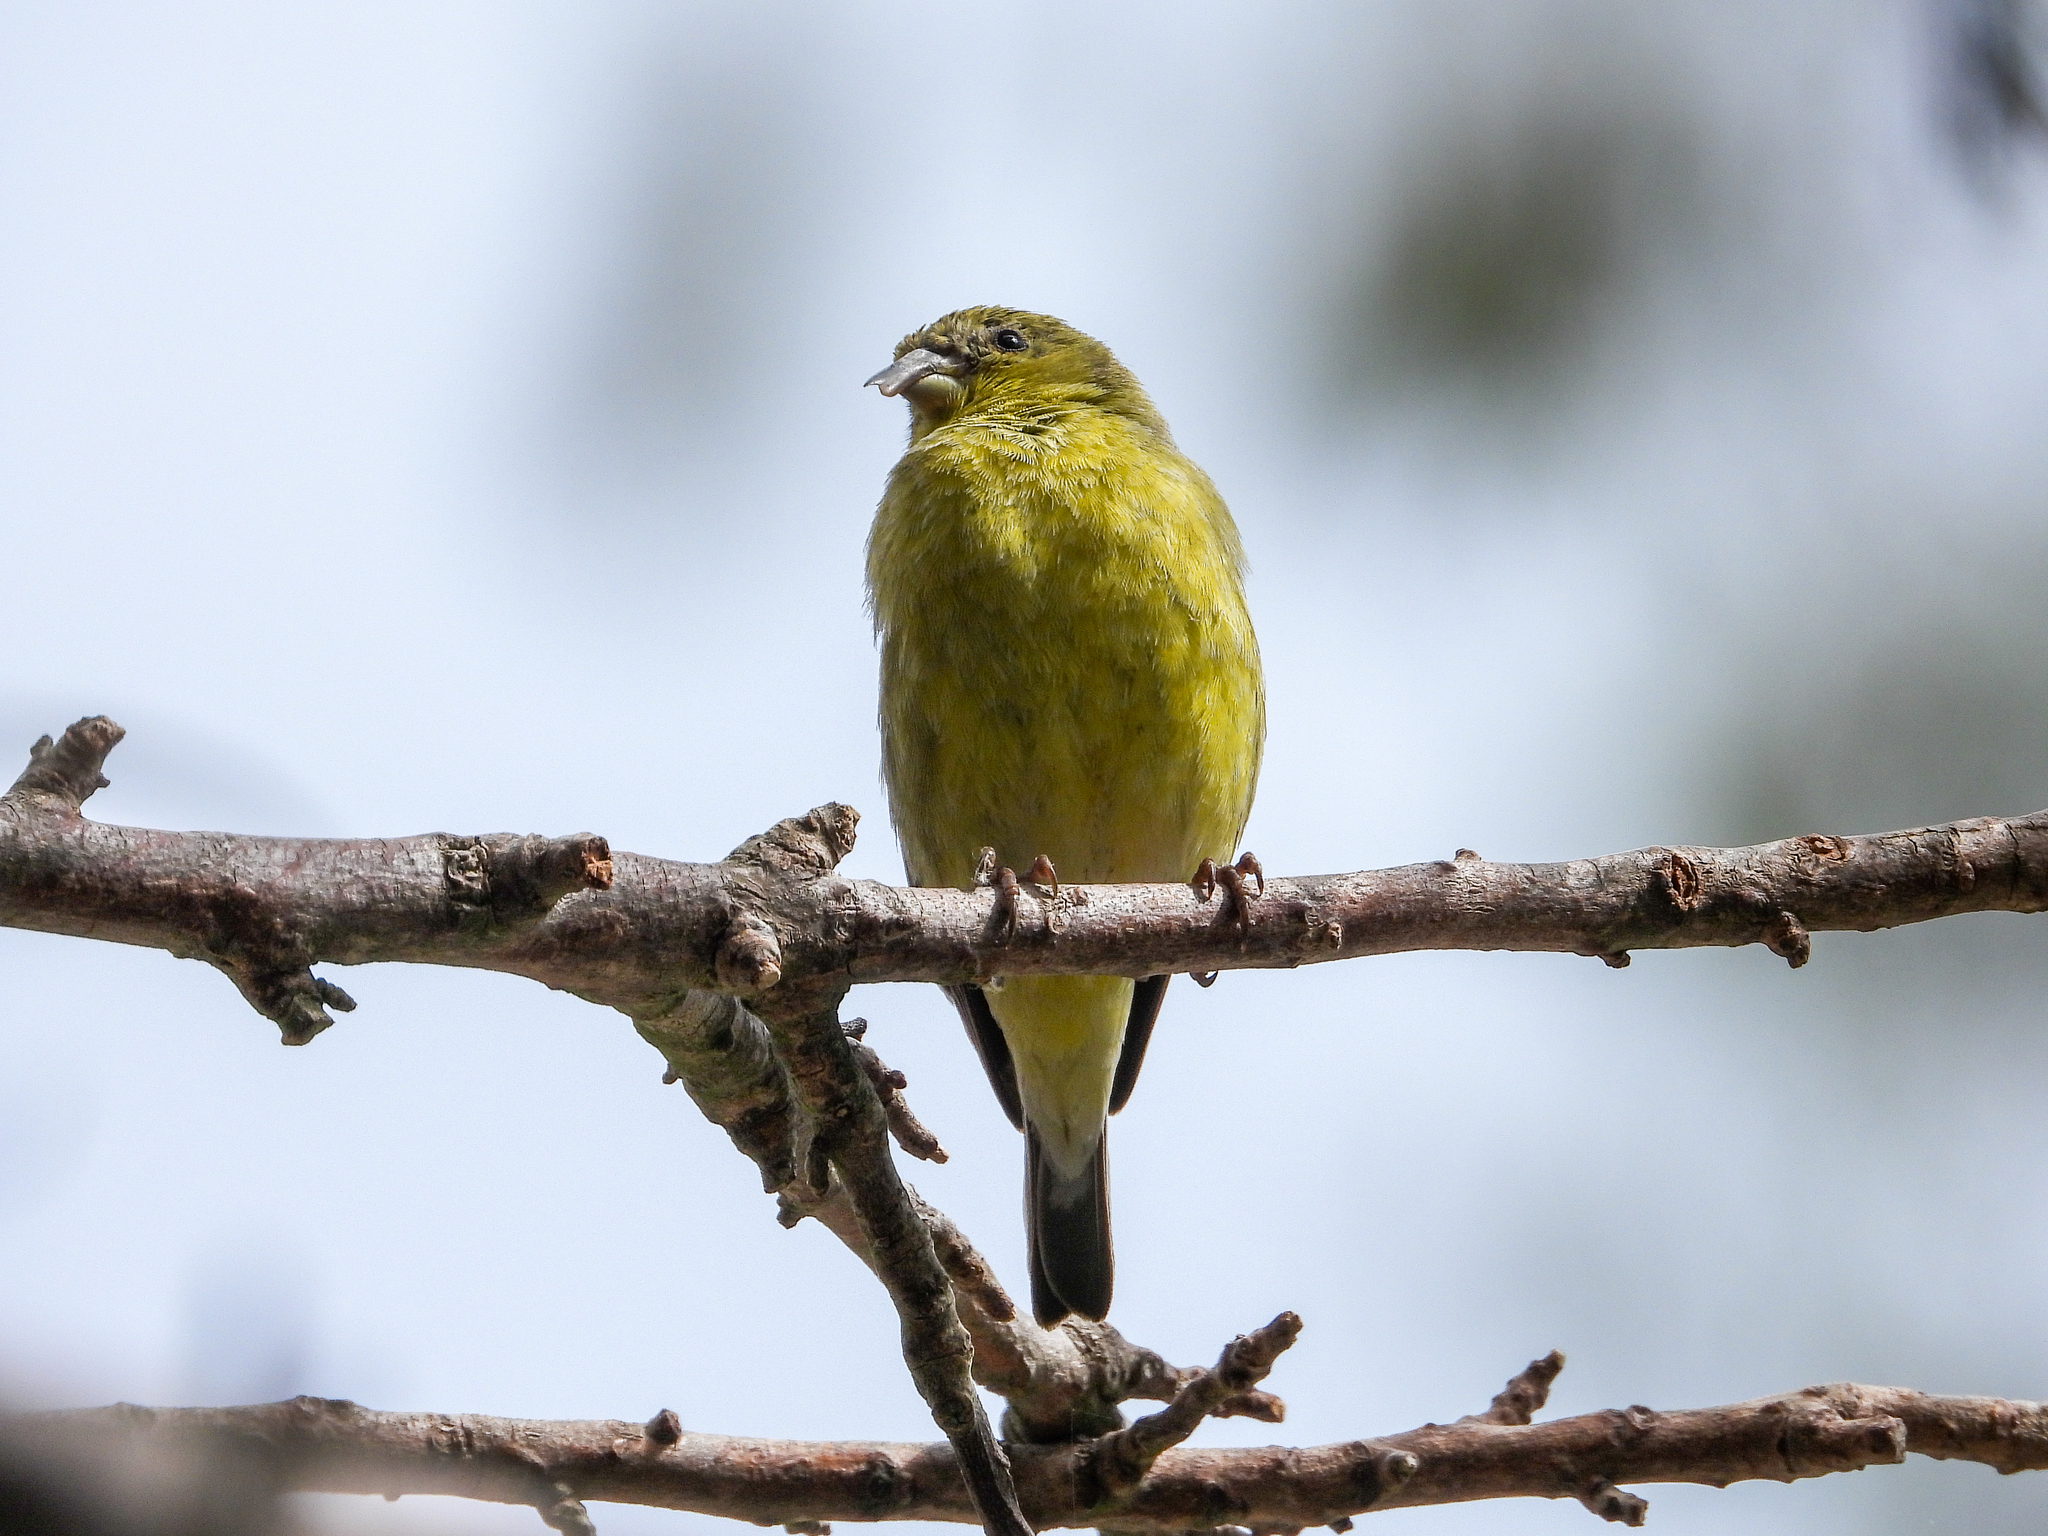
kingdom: Animalia
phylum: Chordata
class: Aves
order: Passeriformes
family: Fringillidae
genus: Spinus
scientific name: Spinus psaltria
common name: Lesser goldfinch
